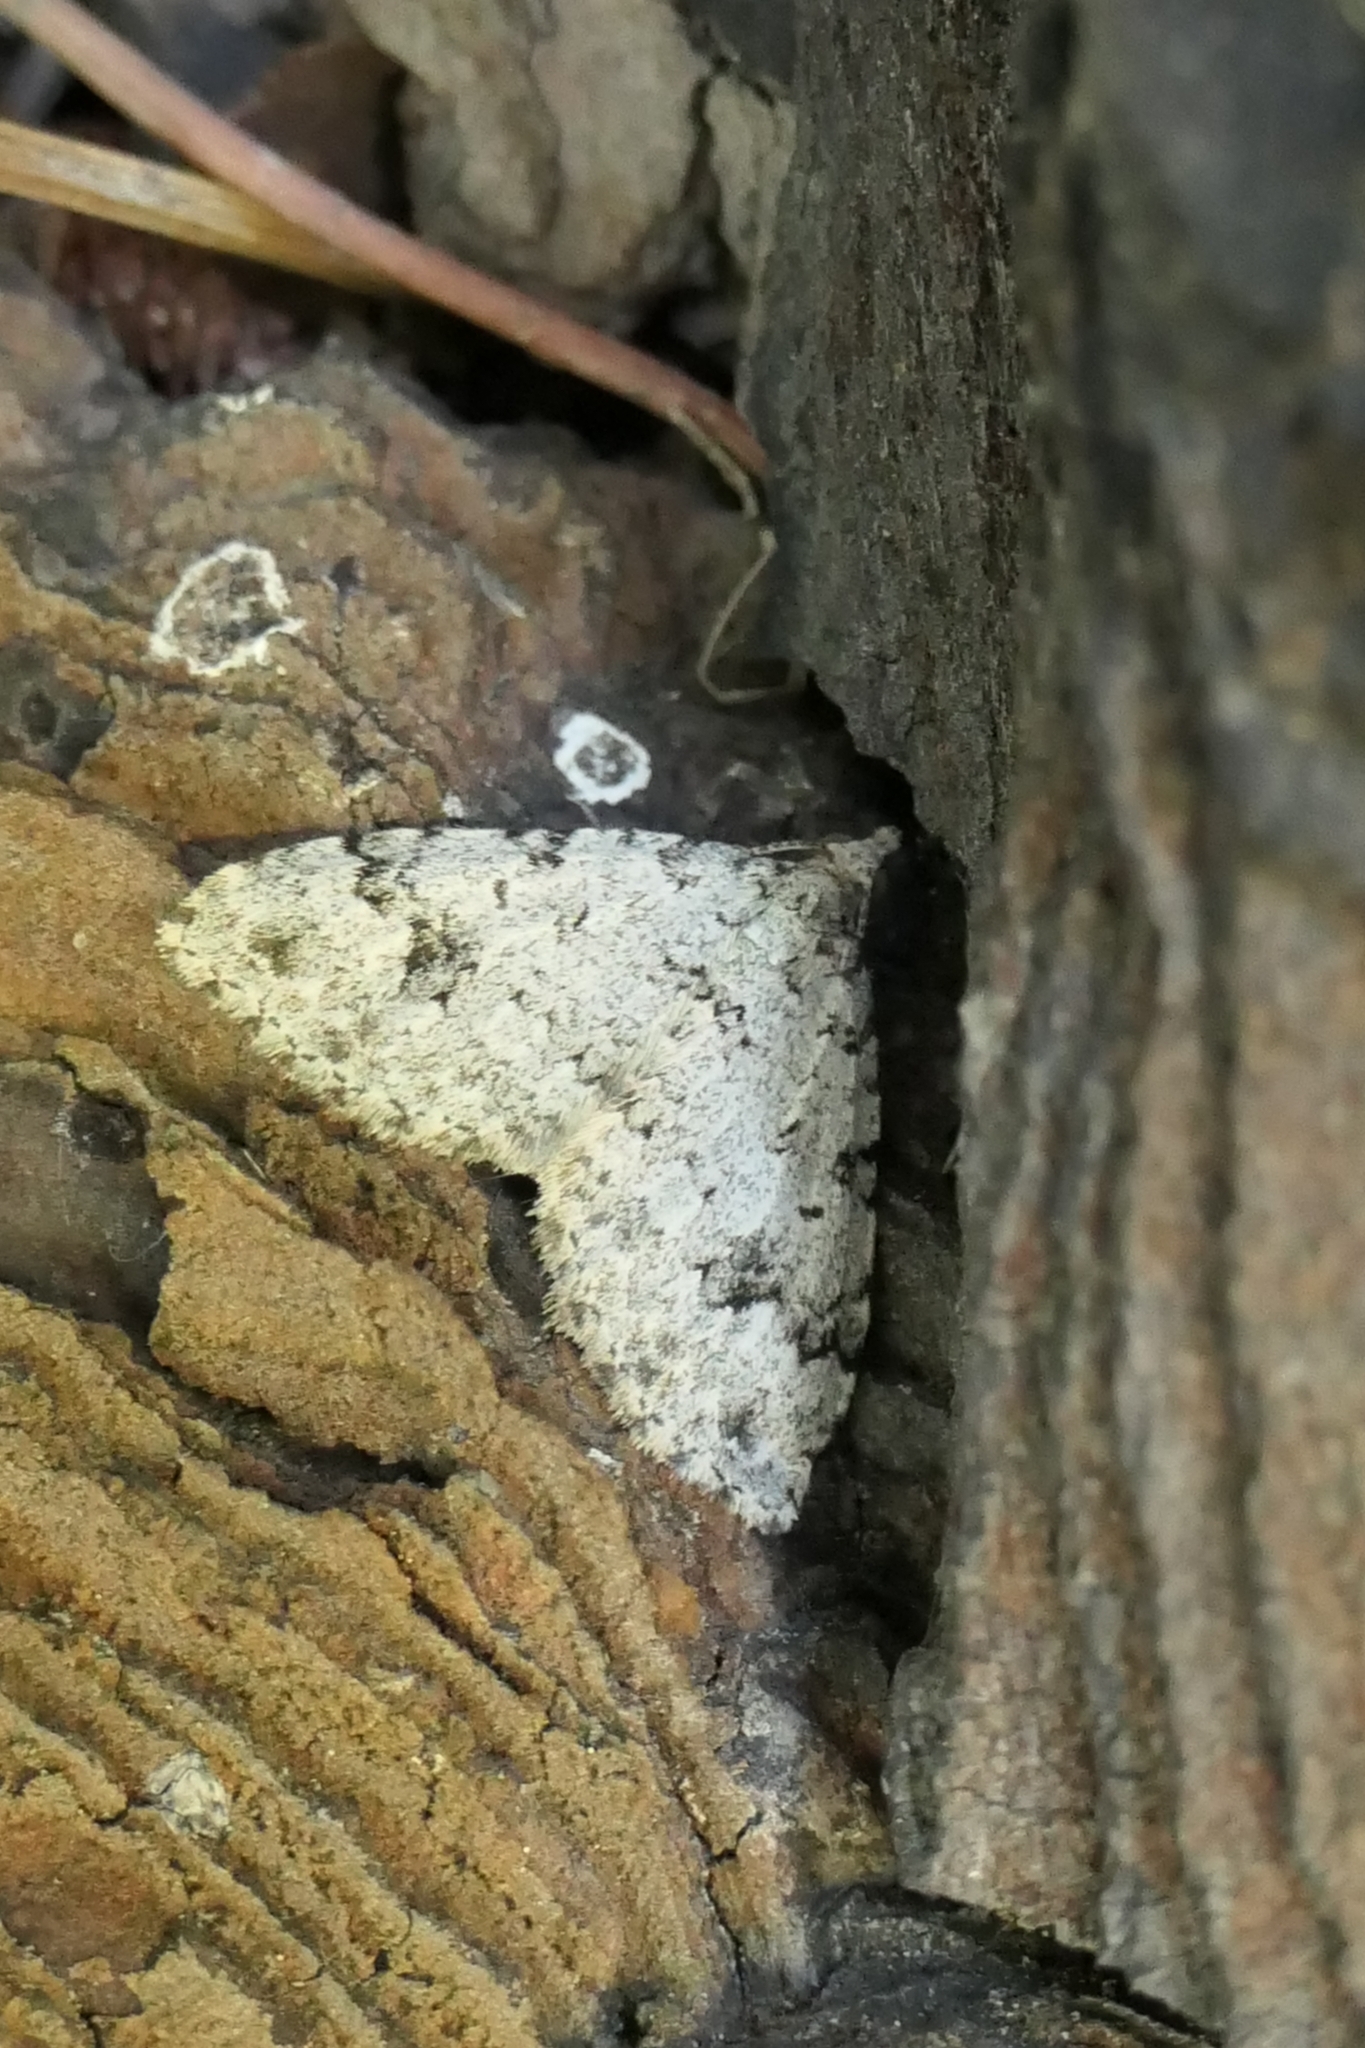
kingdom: Animalia
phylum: Arthropoda
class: Insecta
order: Lepidoptera
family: Geometridae
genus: Helastia
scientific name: Helastia cinerearia
